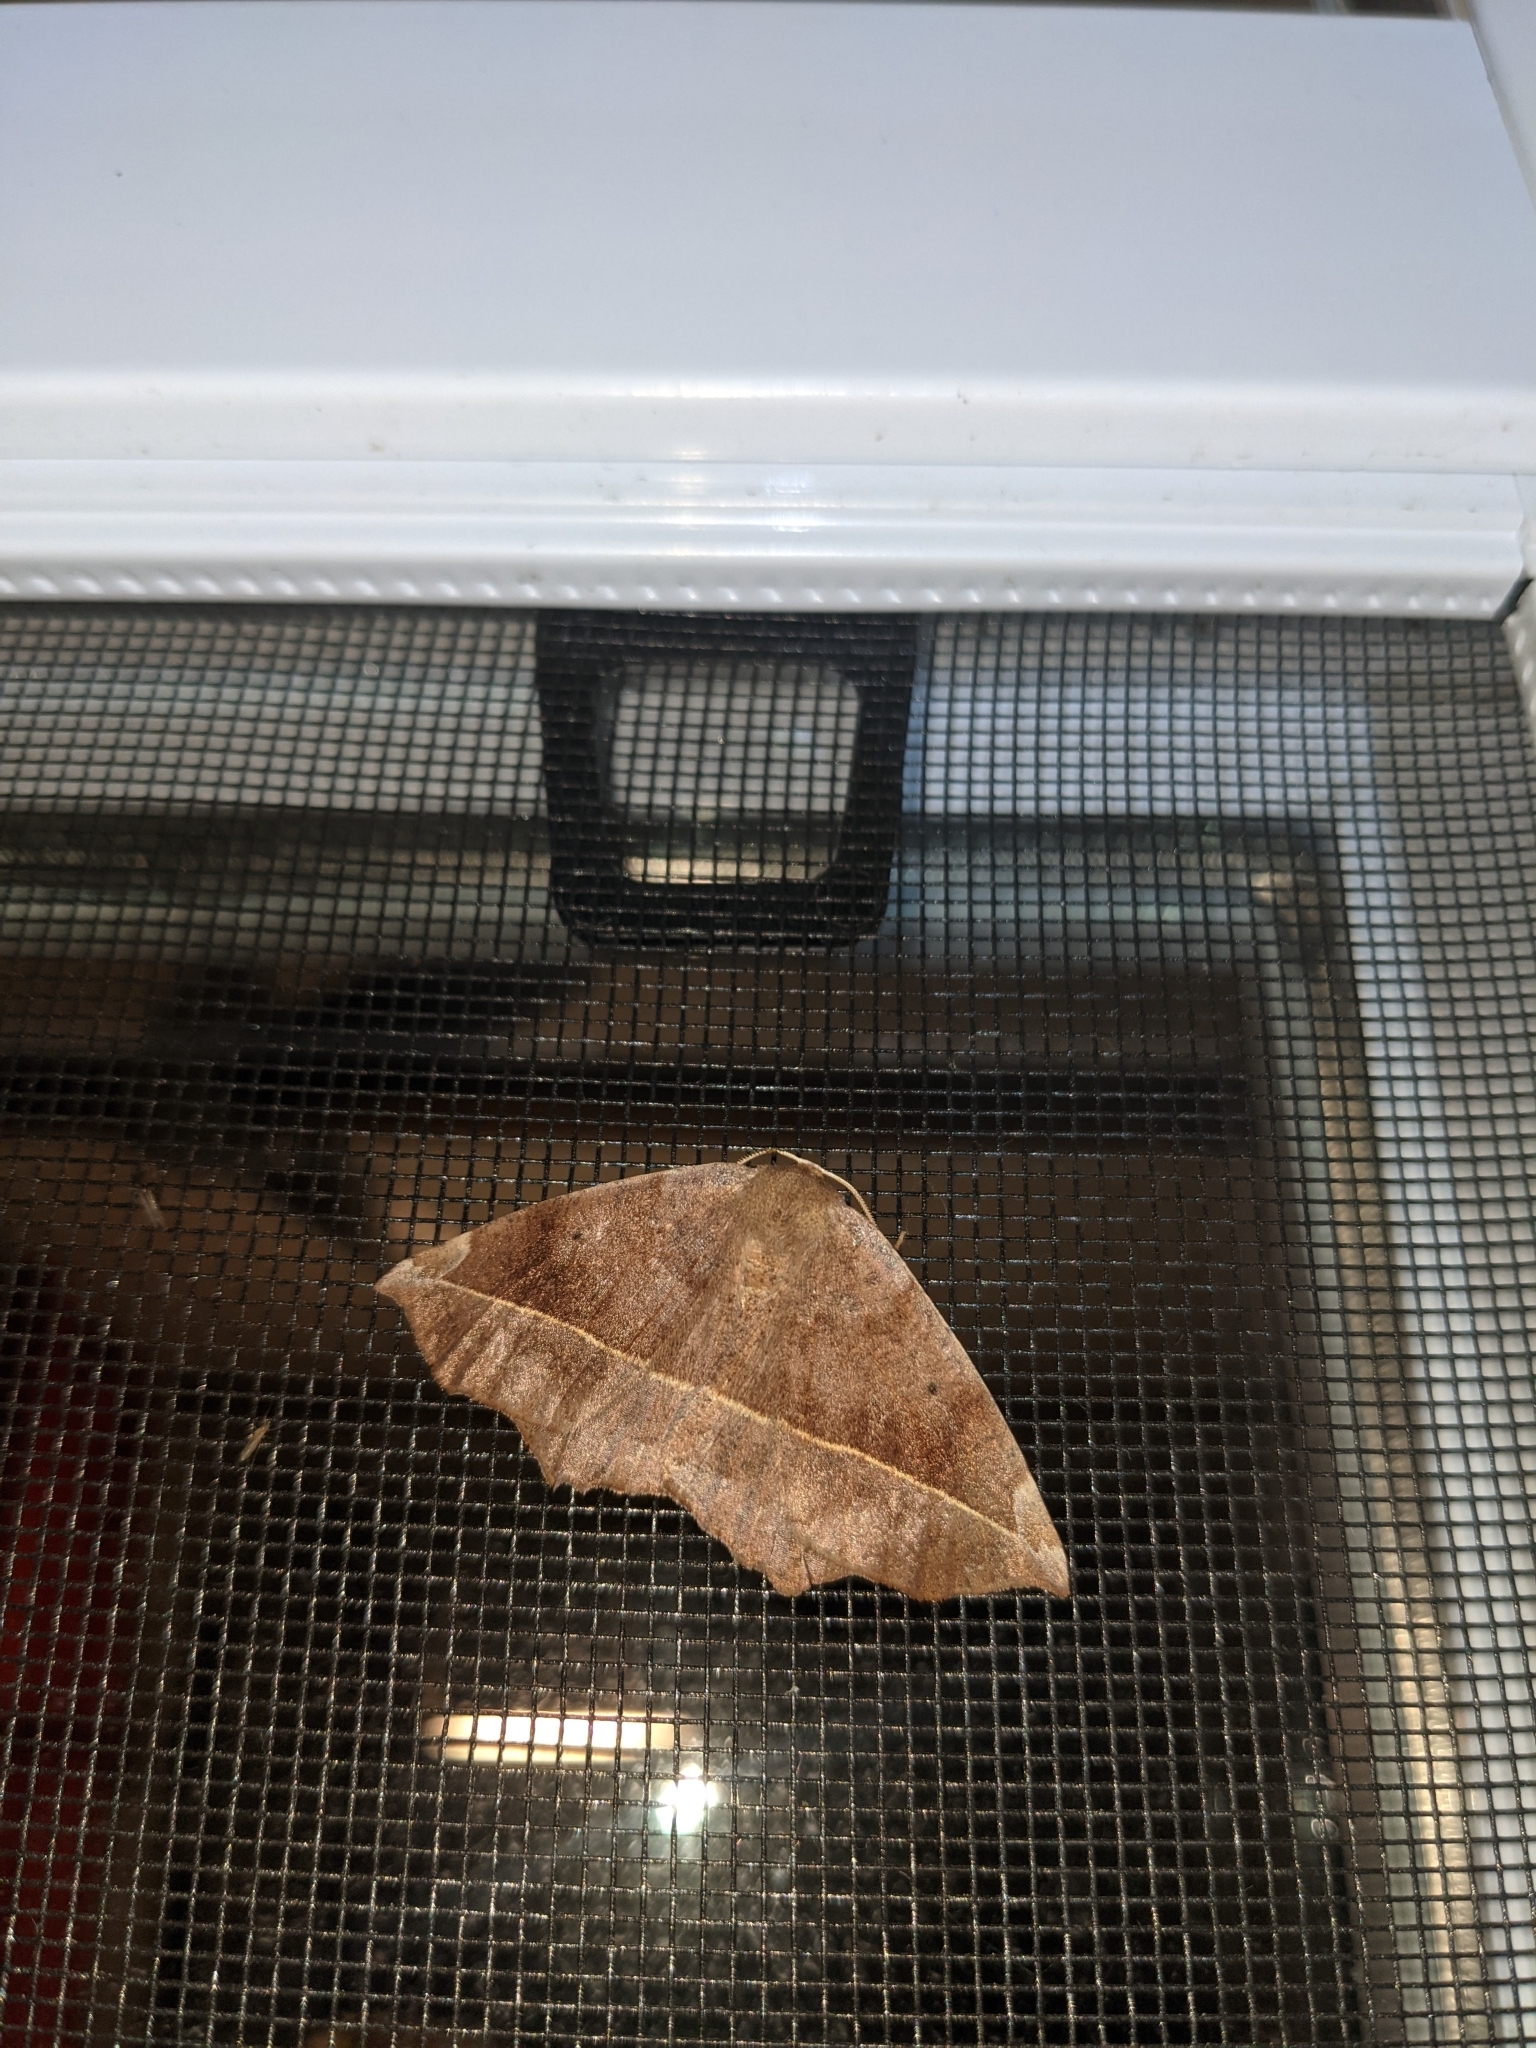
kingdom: Animalia
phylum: Arthropoda
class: Insecta
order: Lepidoptera
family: Geometridae
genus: Eutrapela
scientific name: Eutrapela clemataria
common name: Curved-toothed geometer
